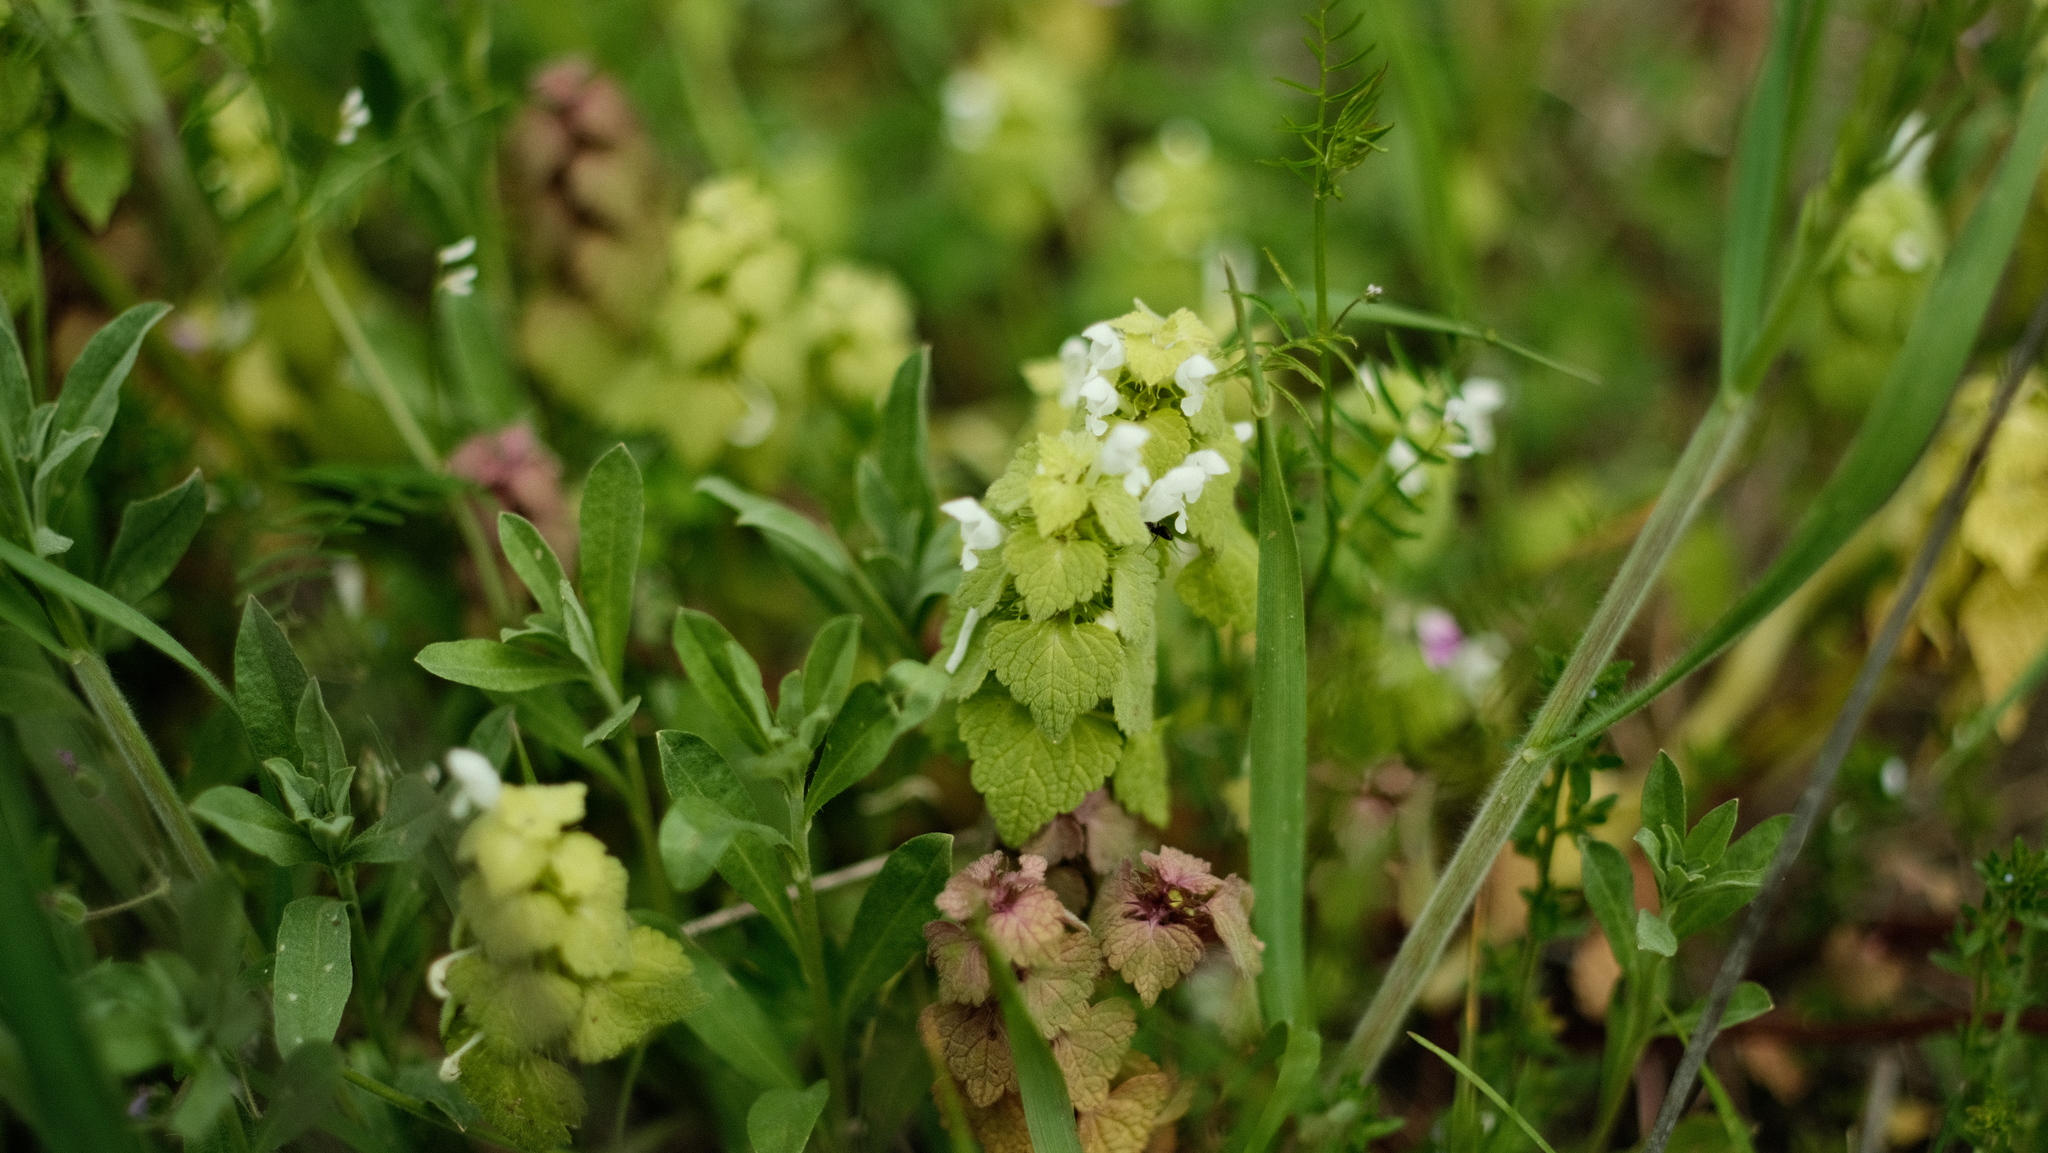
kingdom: Plantae
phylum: Tracheophyta
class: Magnoliopsida
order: Lamiales
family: Lamiaceae
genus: Lamium
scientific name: Lamium purpureum
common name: Red dead-nettle
